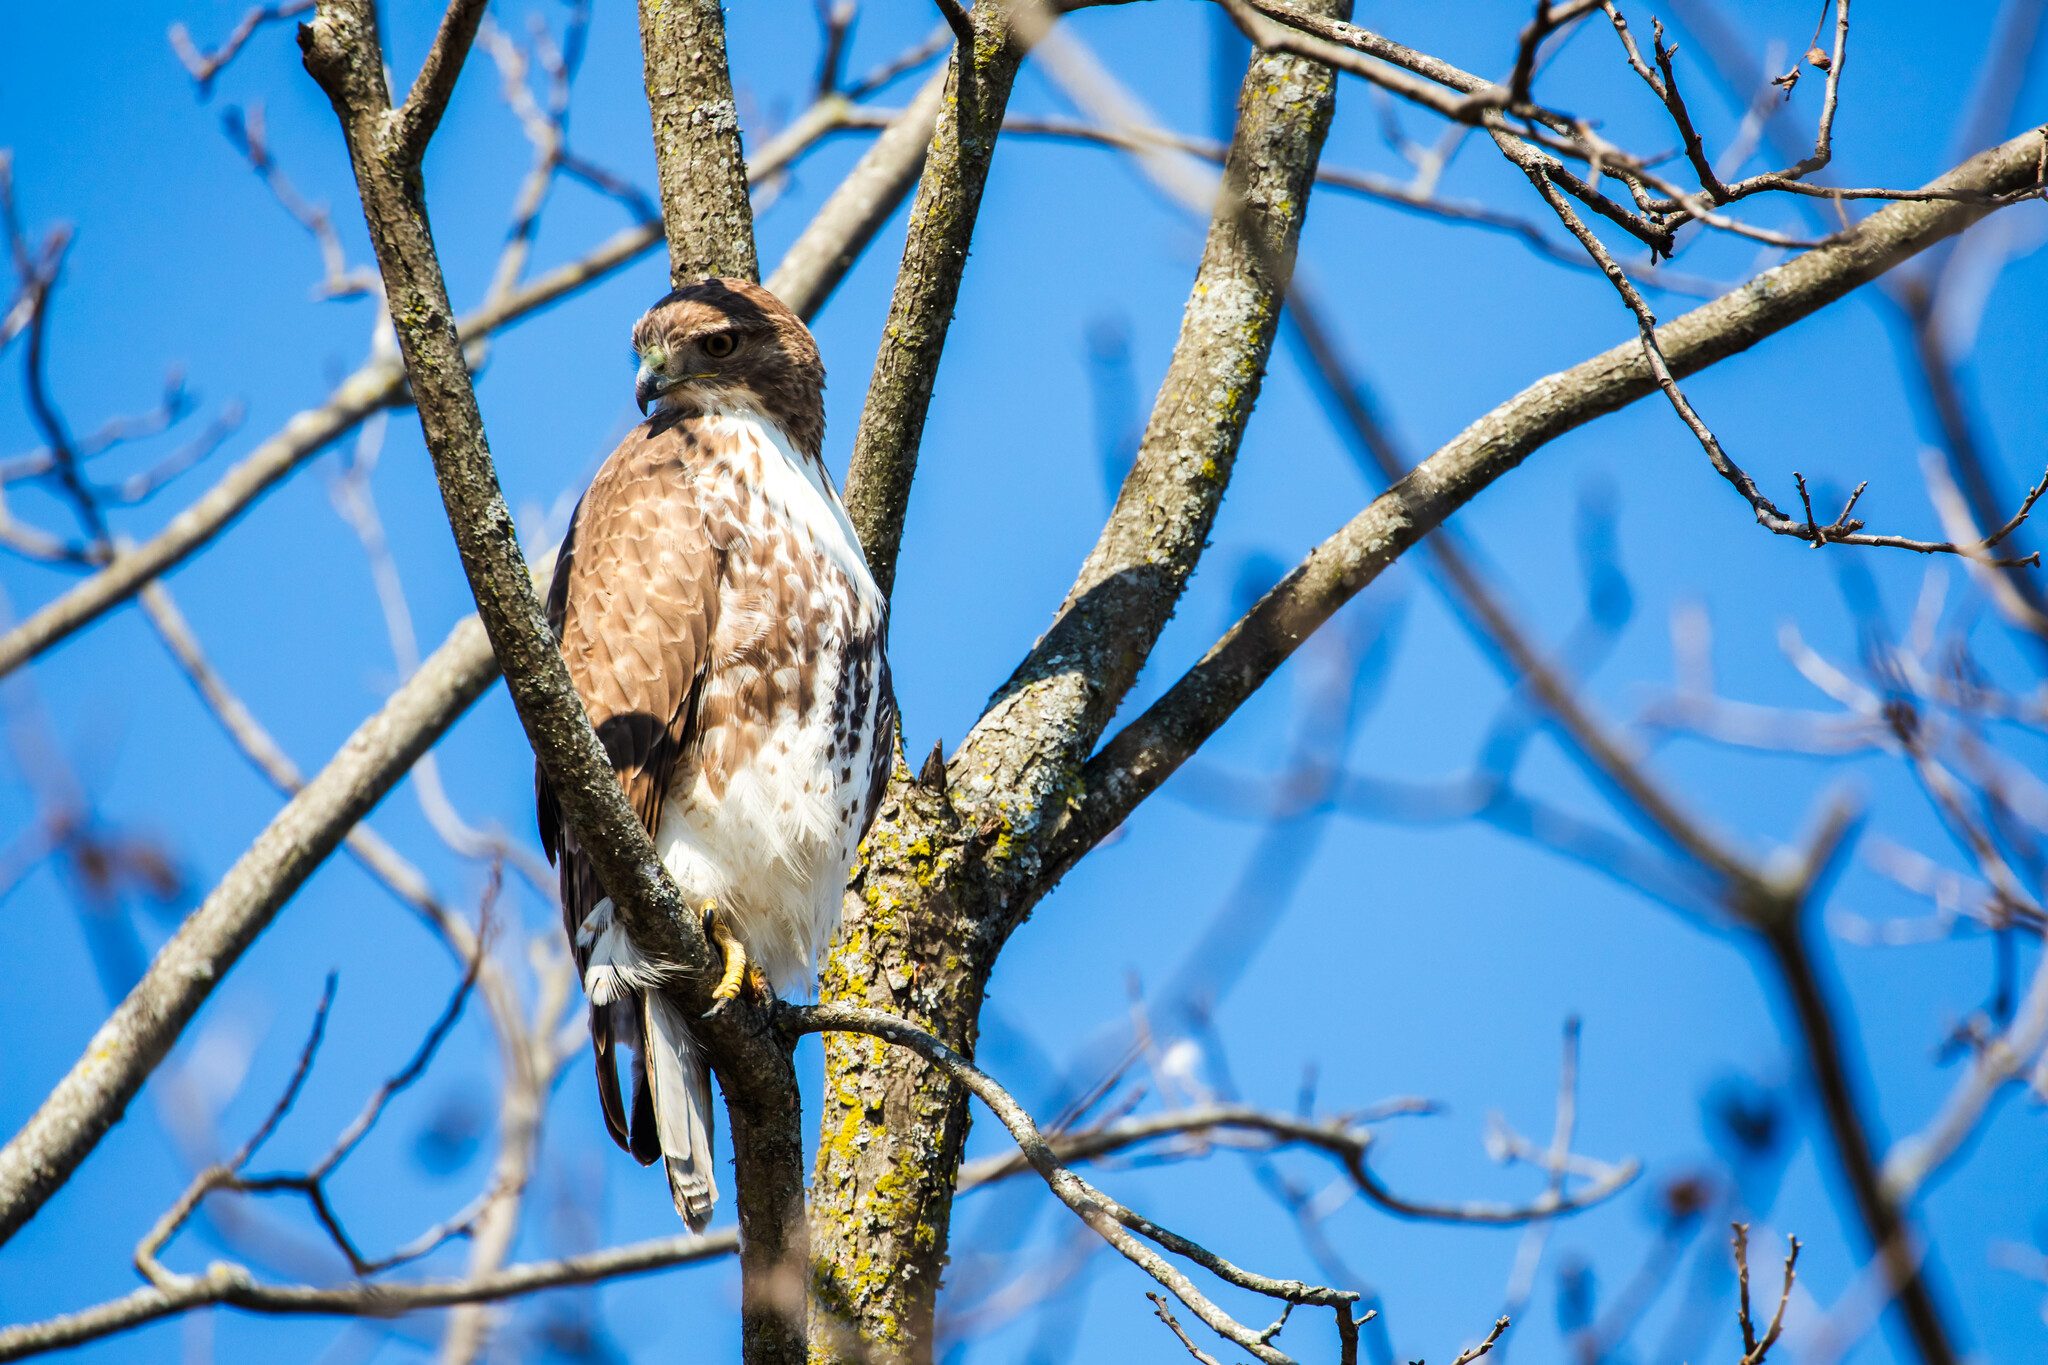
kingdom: Animalia
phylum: Chordata
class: Aves
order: Accipitriformes
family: Accipitridae
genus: Buteo
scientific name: Buteo jamaicensis
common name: Red-tailed hawk
